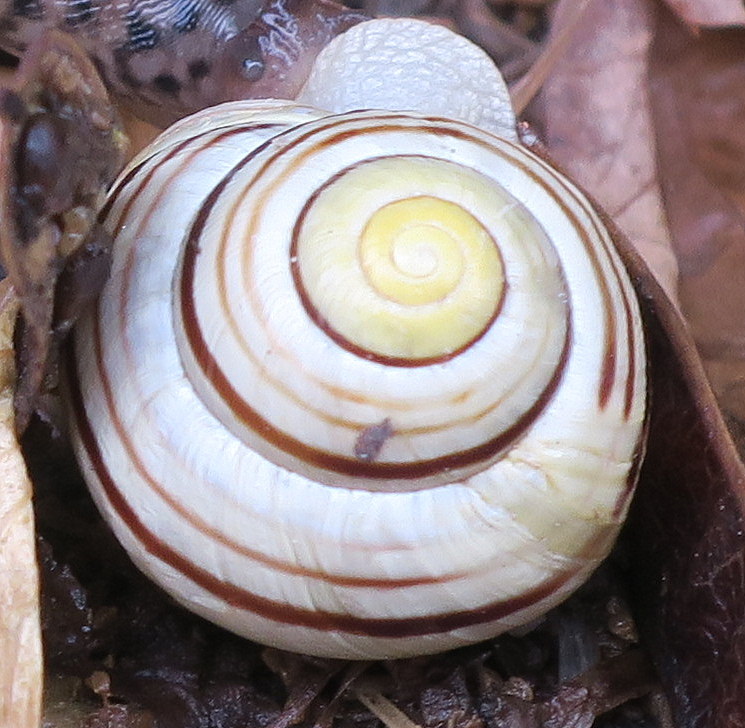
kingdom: Animalia
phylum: Mollusca
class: Gastropoda
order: Stylommatophora
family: Helicidae
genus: Cepaea
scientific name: Cepaea hortensis
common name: White-lip gardensnail
